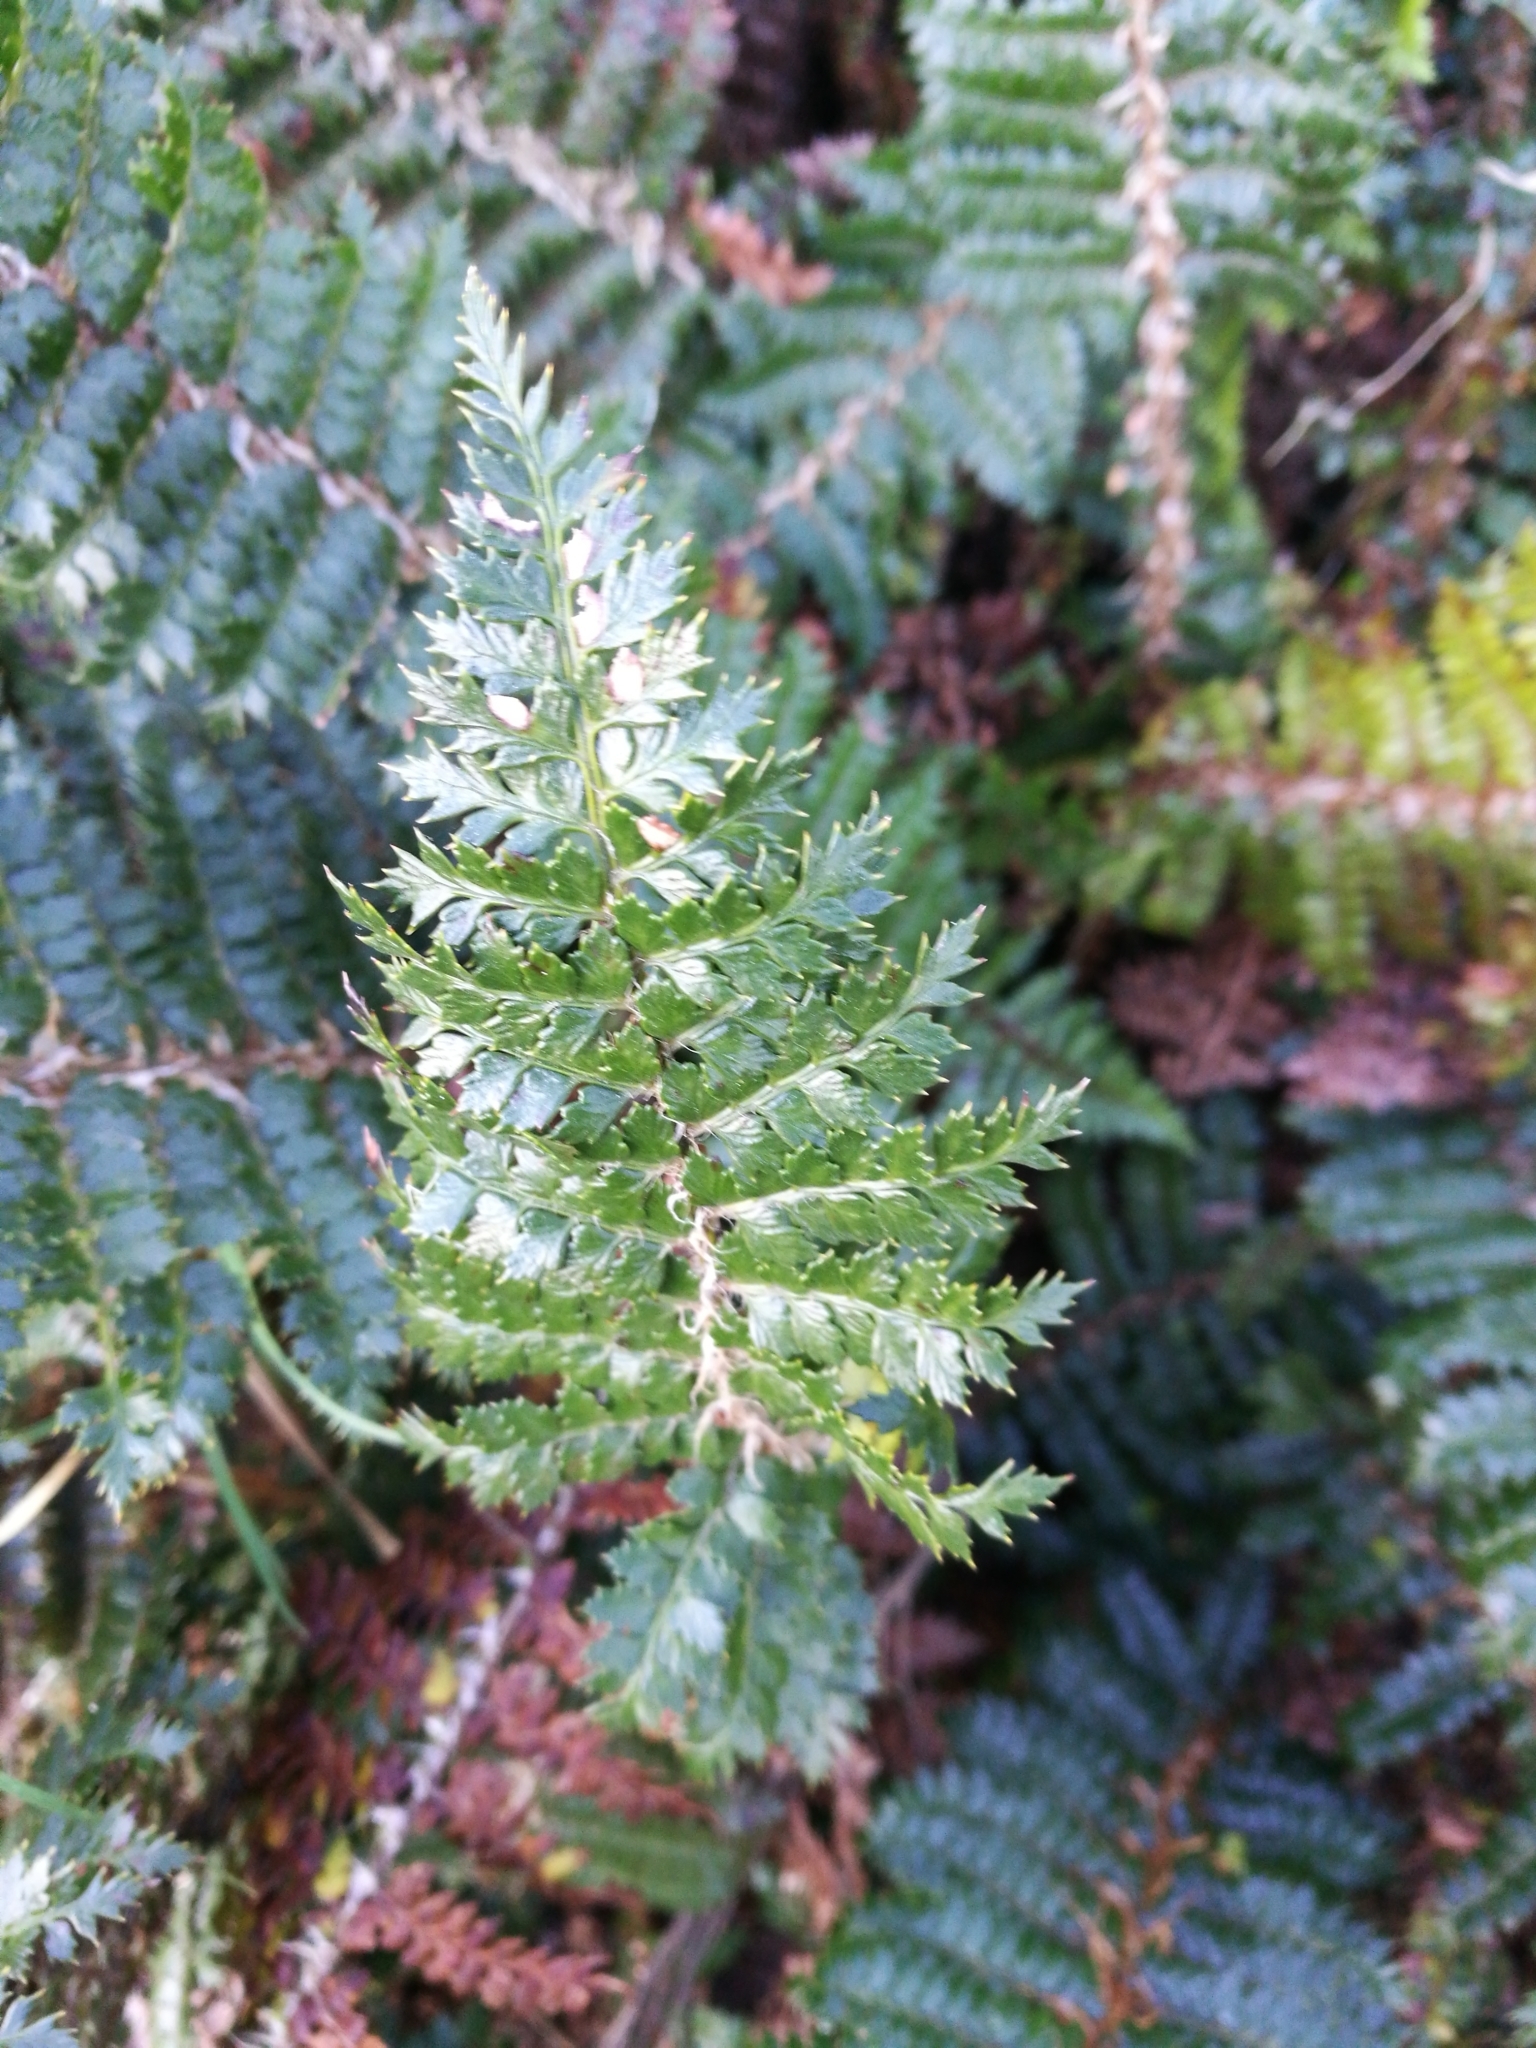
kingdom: Plantae
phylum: Tracheophyta
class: Polypodiopsida
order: Polypodiales
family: Dryopteridaceae
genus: Polystichum
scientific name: Polystichum vestitum
